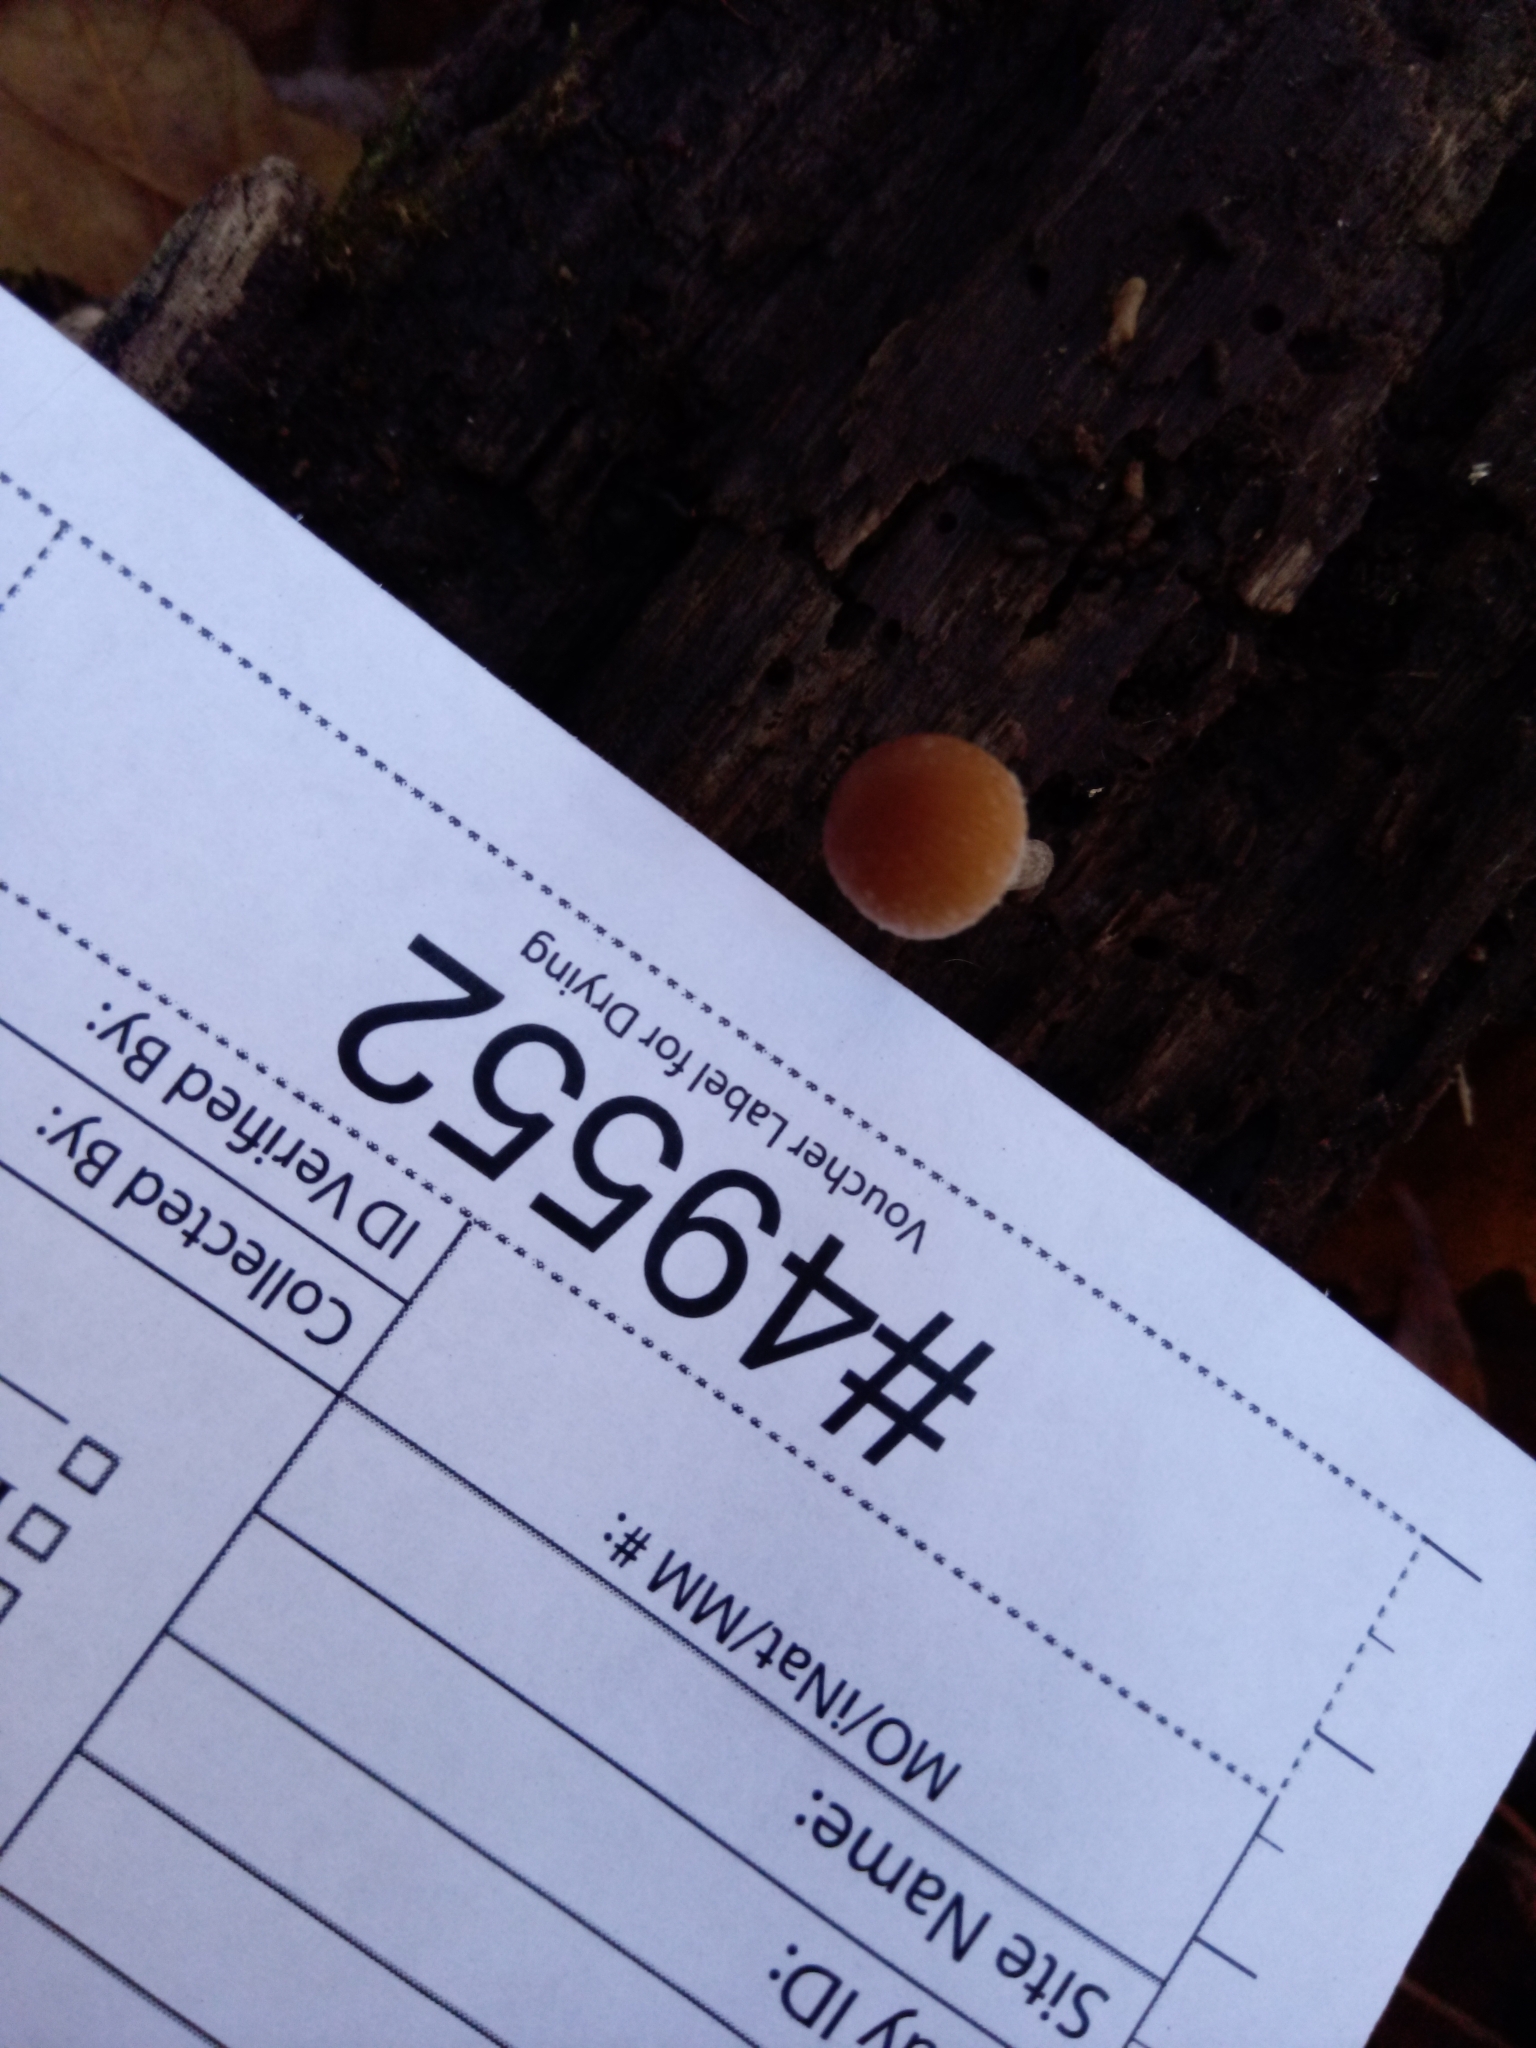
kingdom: Fungi
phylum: Basidiomycota
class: Agaricomycetes
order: Agaricales
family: Psathyrellaceae
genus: Psathyrella
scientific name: Psathyrella psammophila
